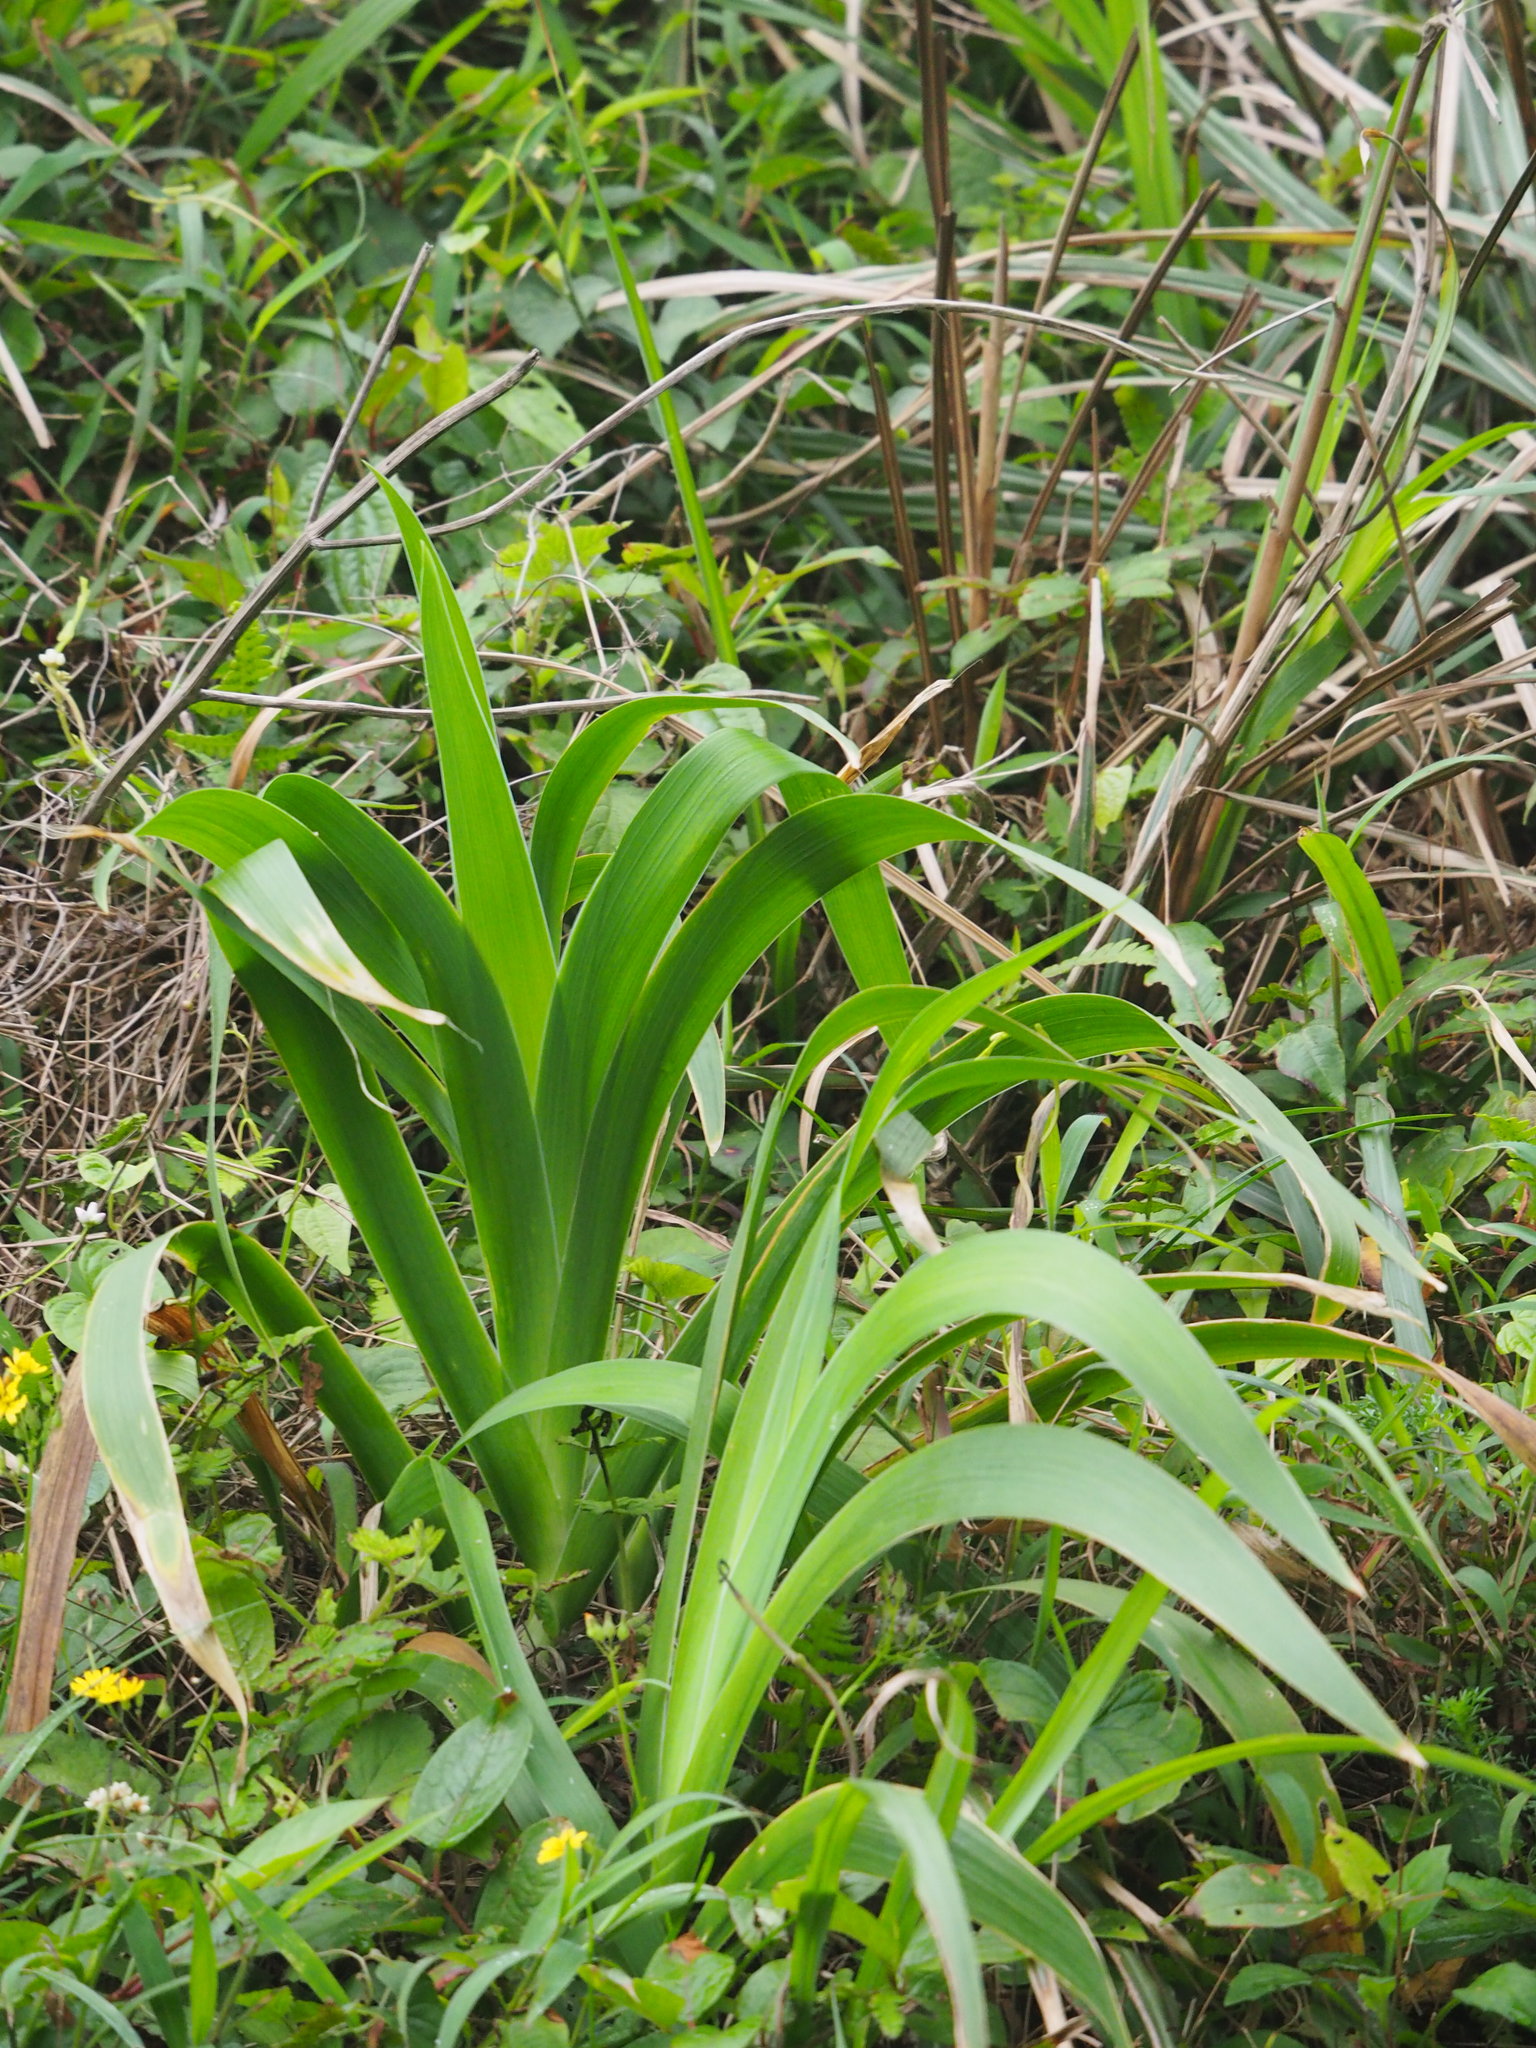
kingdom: Plantae
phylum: Tracheophyta
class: Liliopsida
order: Asparagales
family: Iridaceae
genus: Iris
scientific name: Iris domestica
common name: Belamcanda
